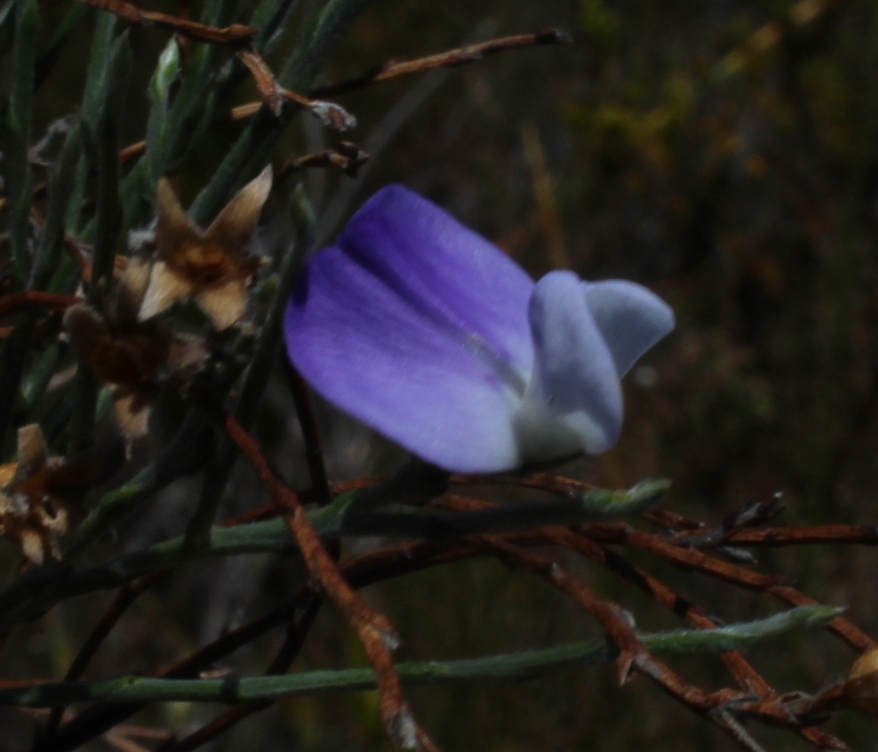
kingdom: Plantae
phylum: Tracheophyta
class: Magnoliopsida
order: Fabales
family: Fabaceae
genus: Psoralea
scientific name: Psoralea pullata
